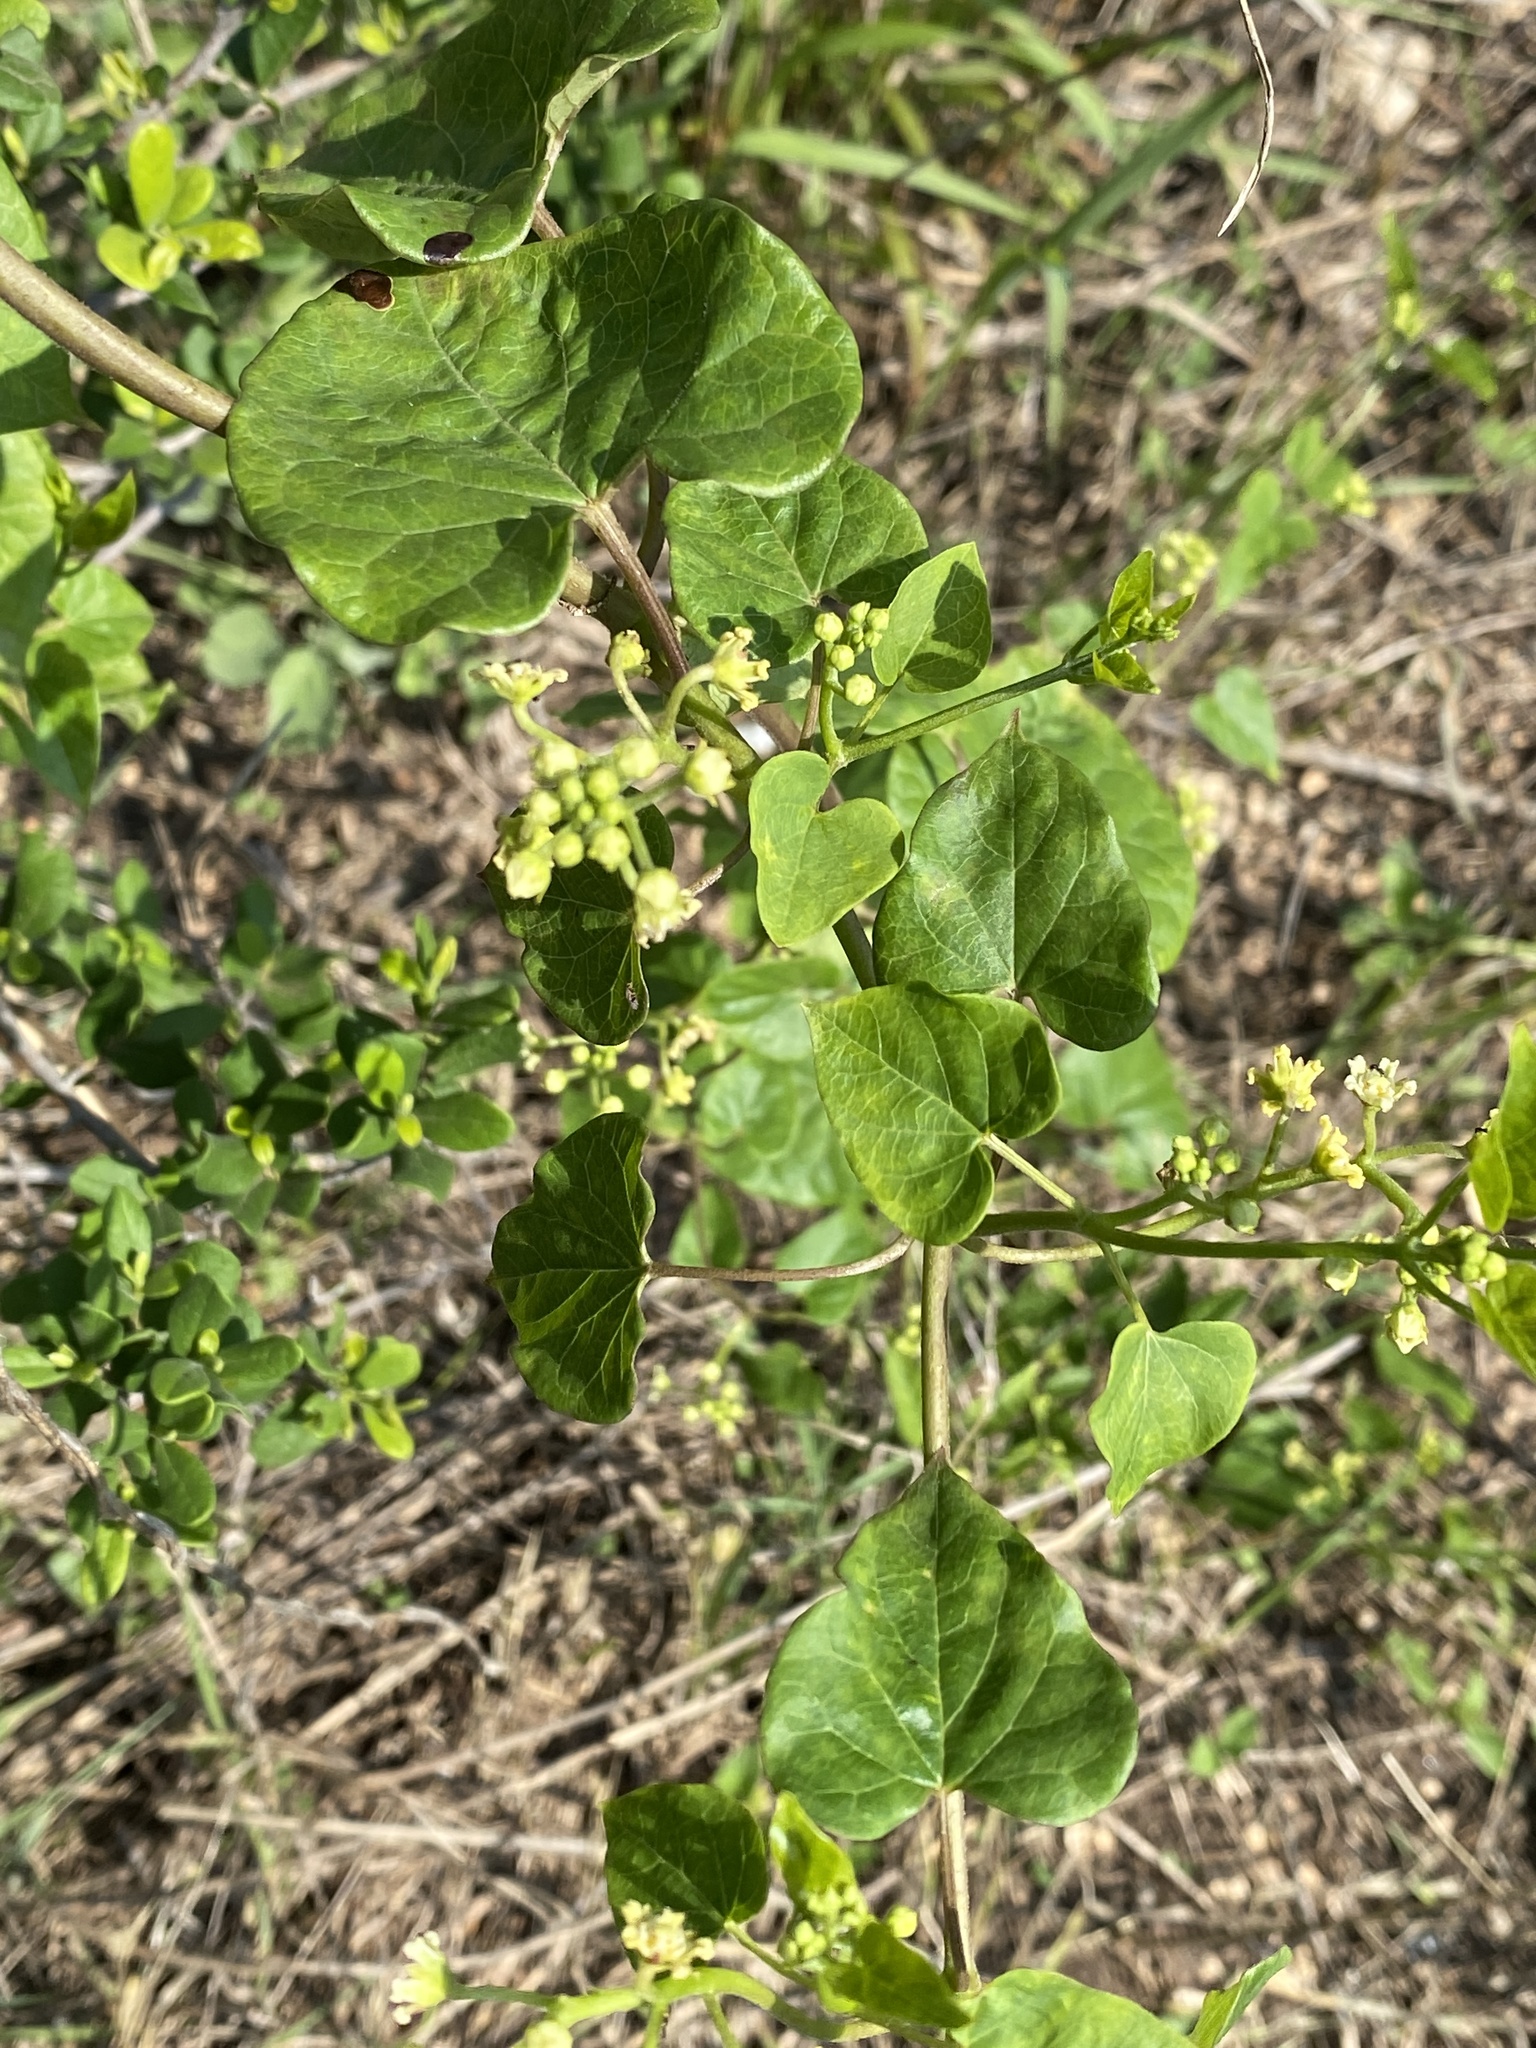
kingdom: Plantae
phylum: Tracheophyta
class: Magnoliopsida
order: Ranunculales
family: Menispermaceae
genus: Cocculus
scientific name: Cocculus carolinus
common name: Carolina moonseed
